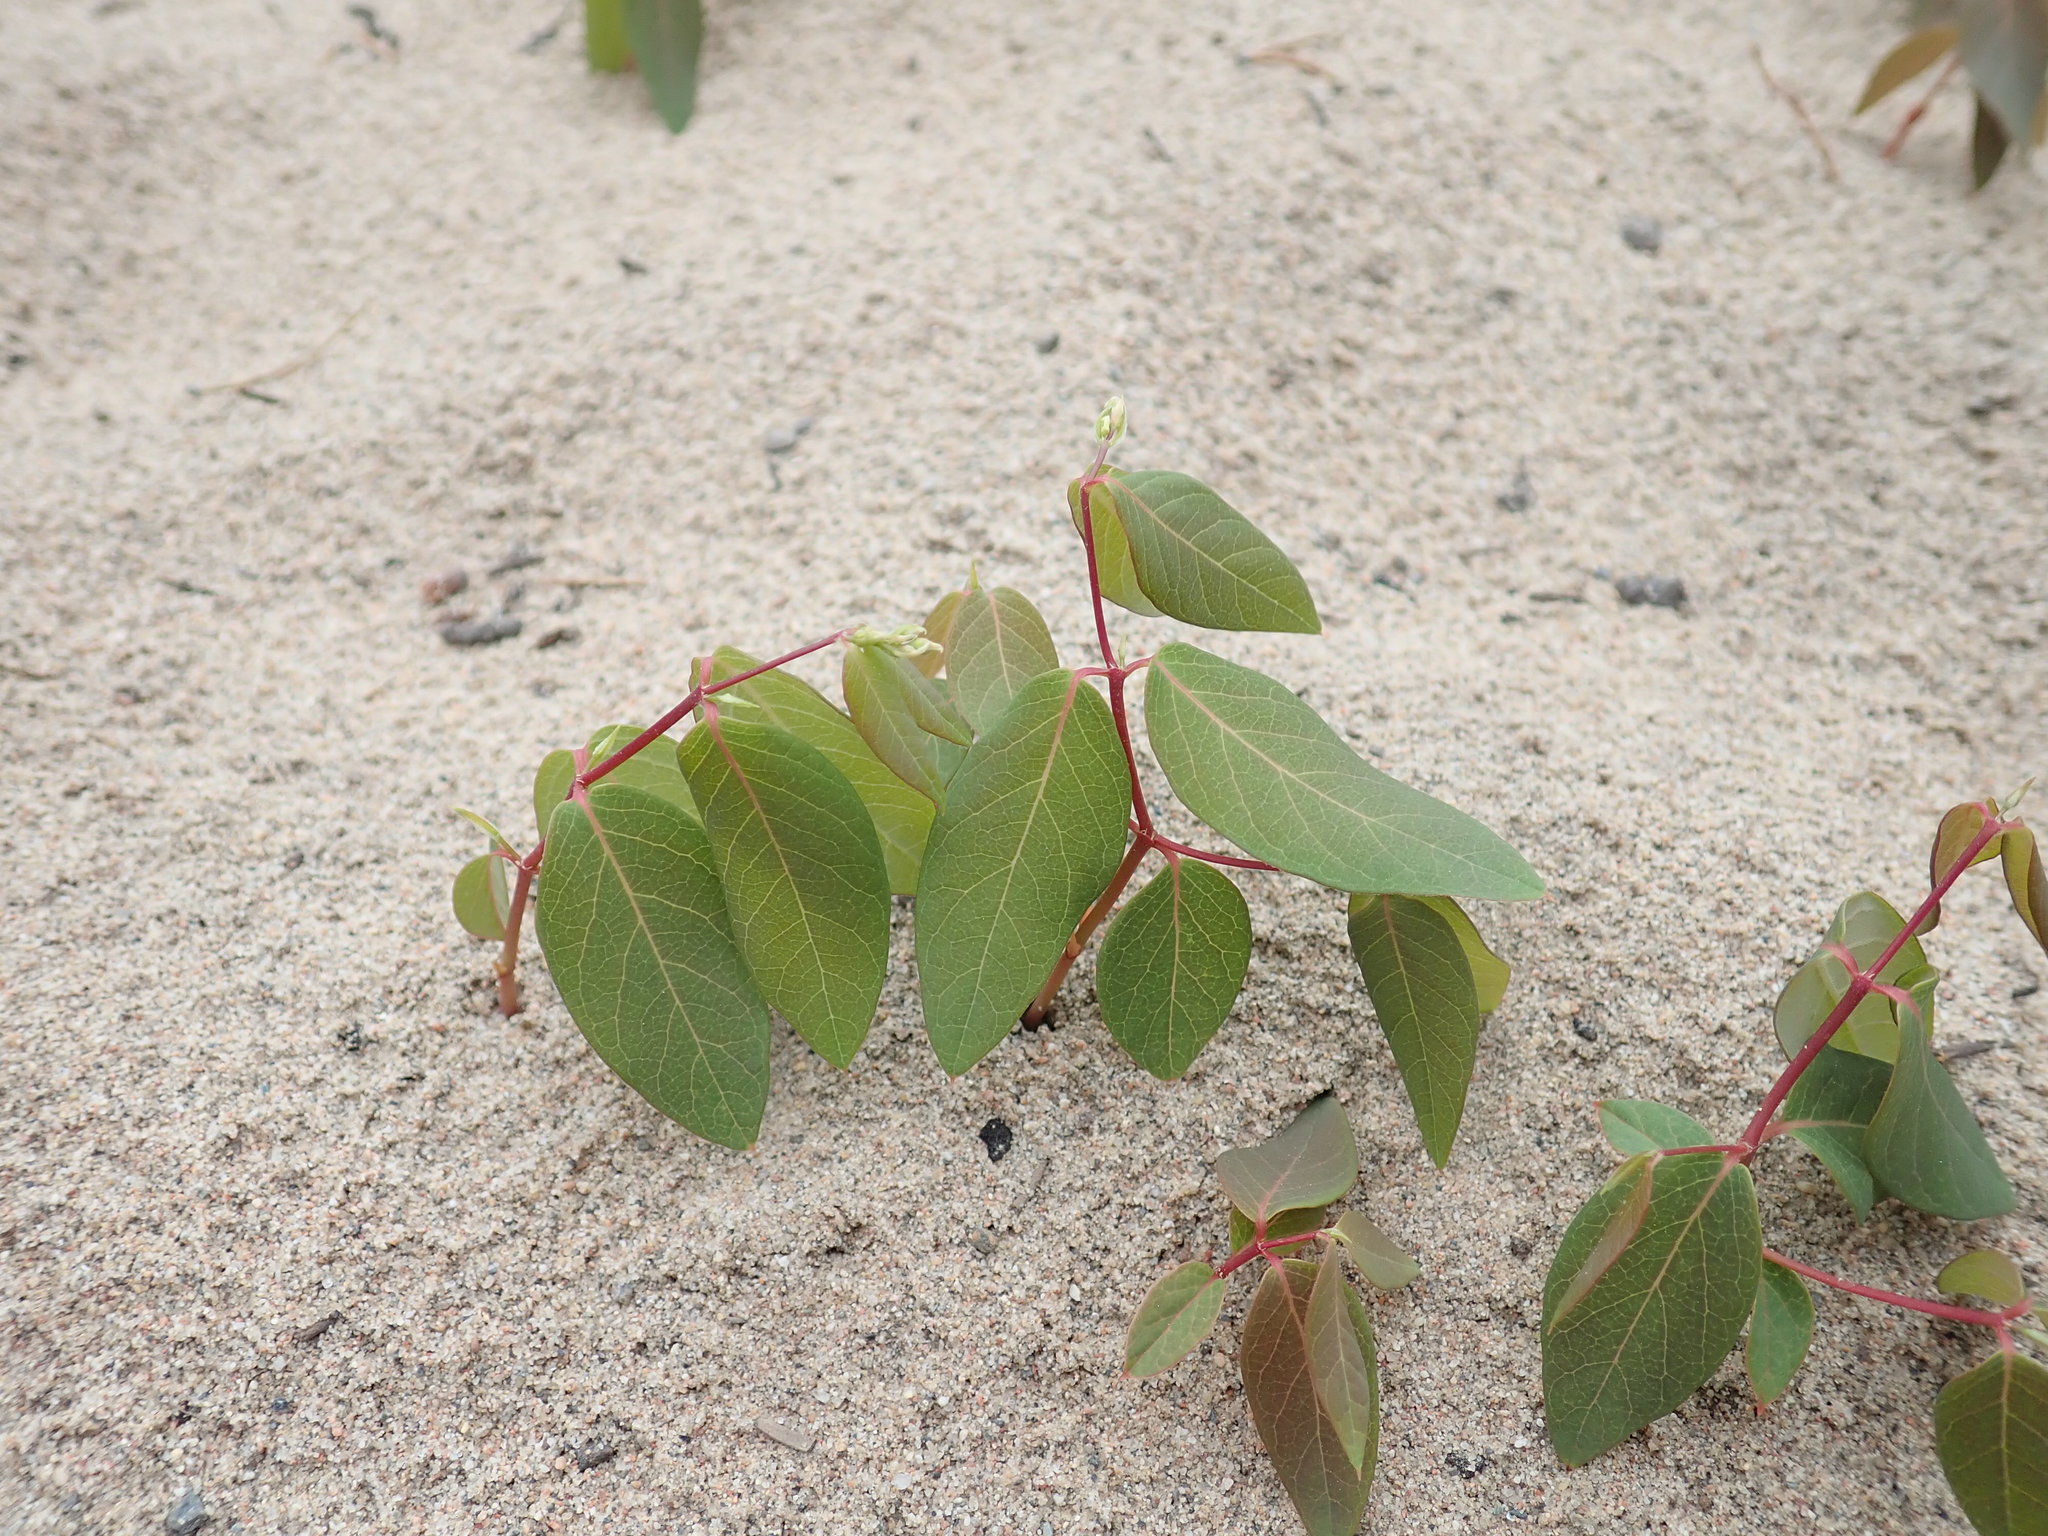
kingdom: Plantae
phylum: Tracheophyta
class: Magnoliopsida
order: Gentianales
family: Apocynaceae
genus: Apocynum
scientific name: Apocynum androsaemifolium
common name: Spreading dogbane
